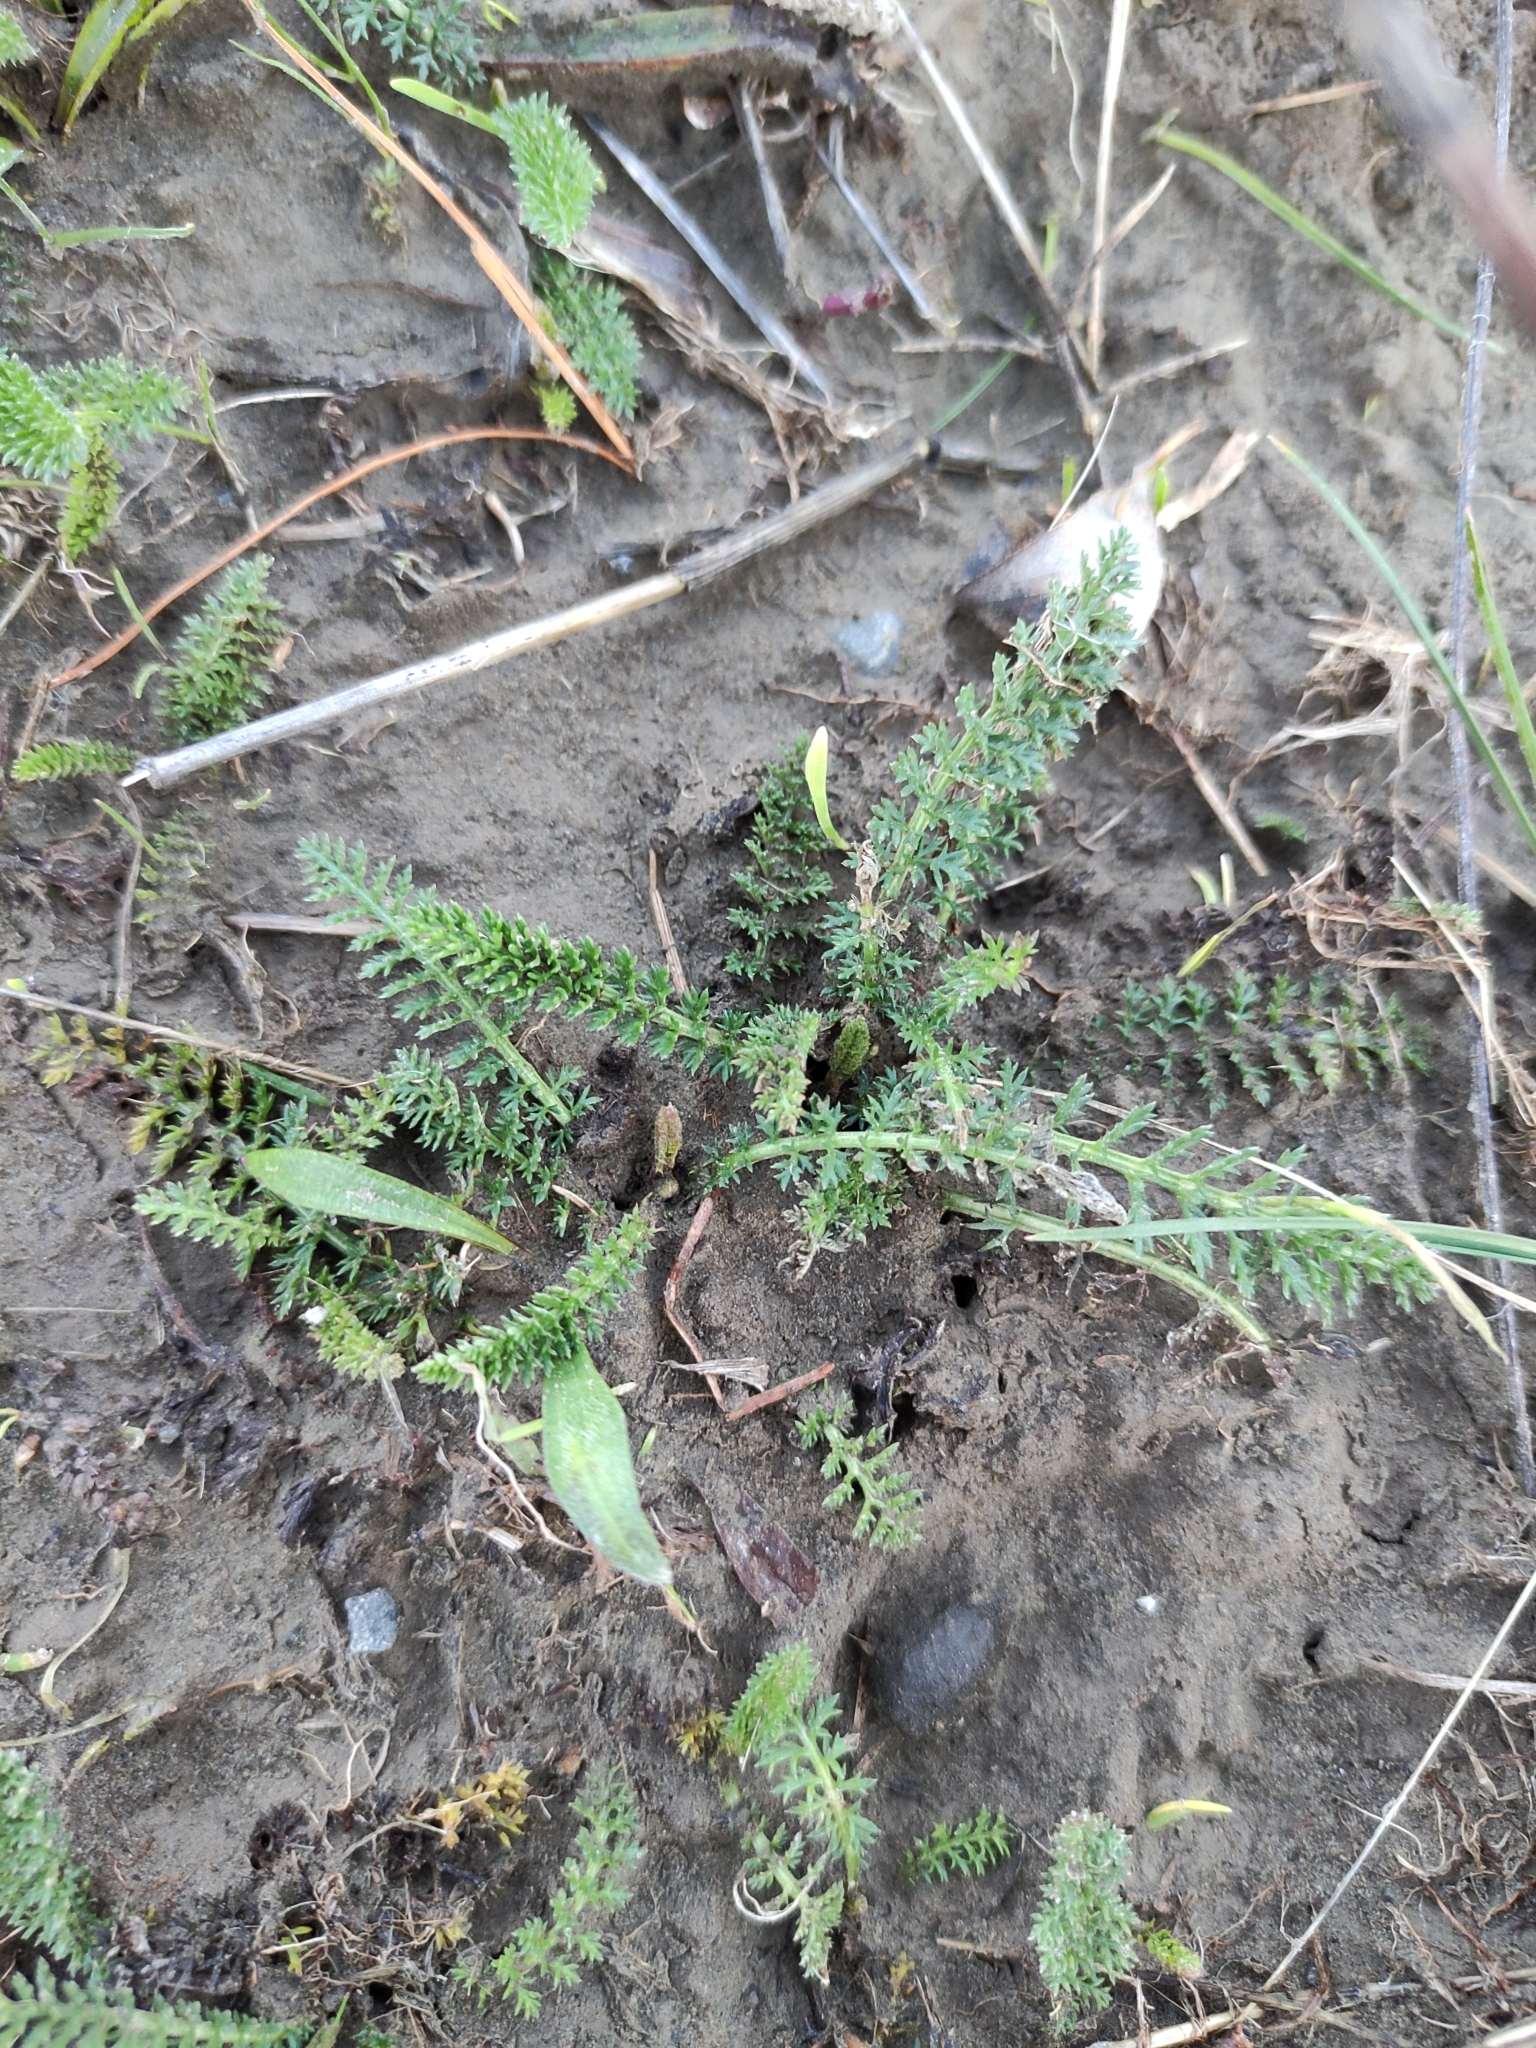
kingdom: Plantae
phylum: Tracheophyta
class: Magnoliopsida
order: Asterales
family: Asteraceae
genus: Achillea
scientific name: Achillea millefolium
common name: Yarrow
